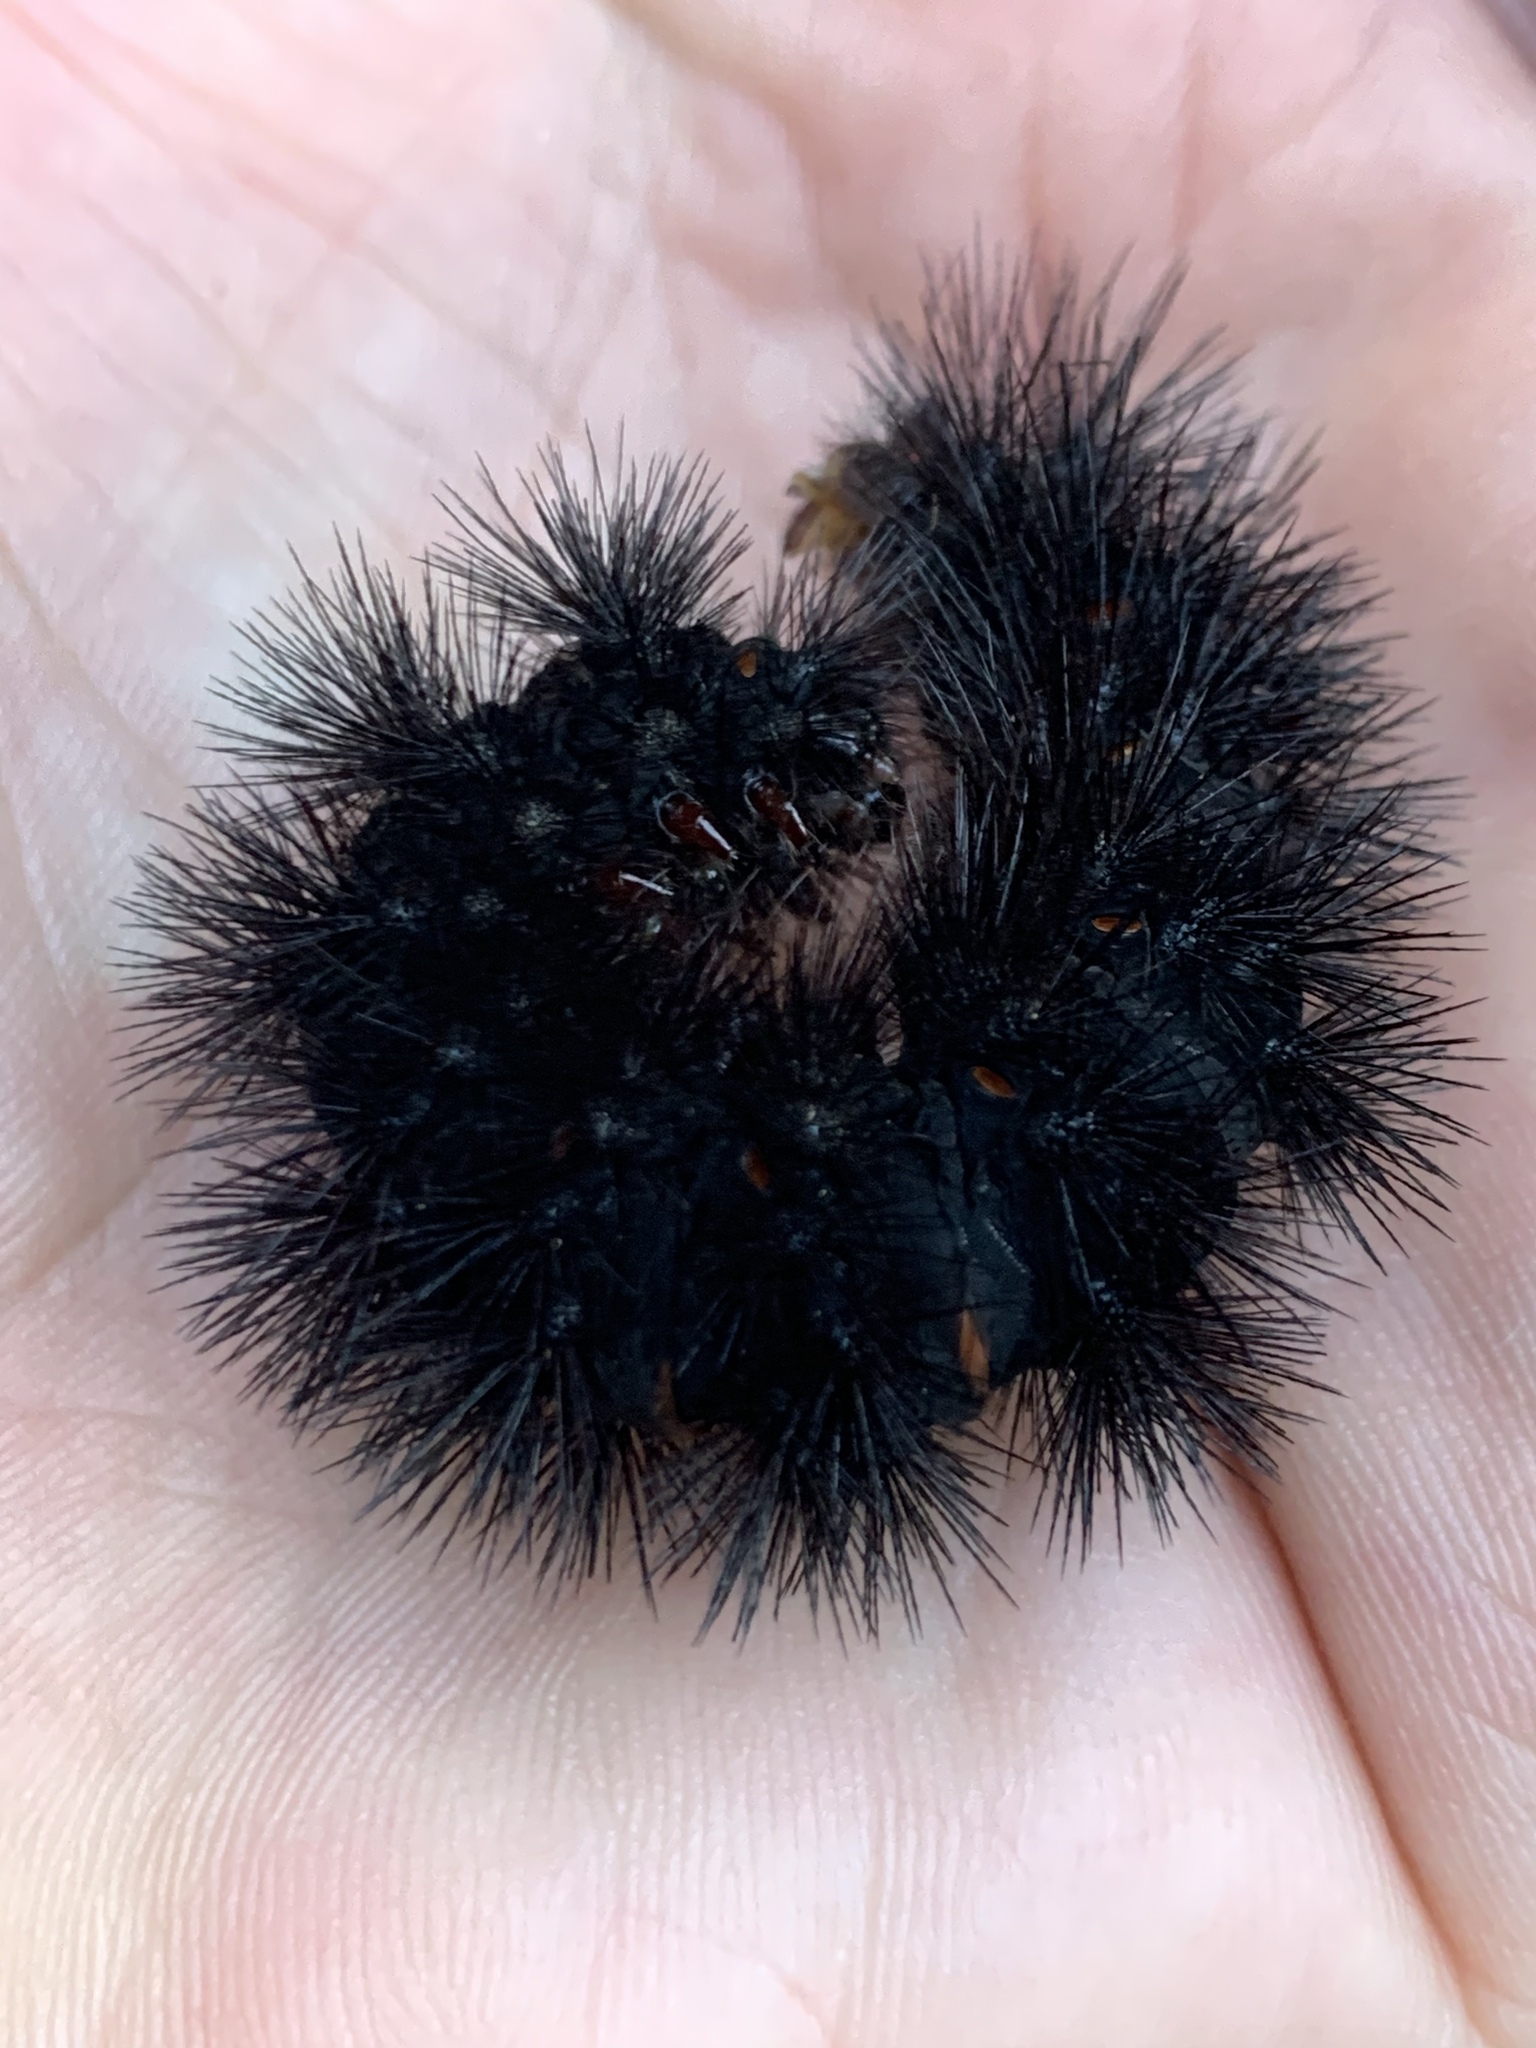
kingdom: Animalia
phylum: Arthropoda
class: Insecta
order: Lepidoptera
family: Erebidae
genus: Hypercompe
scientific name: Hypercompe scribonia
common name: Giant leopard moth
